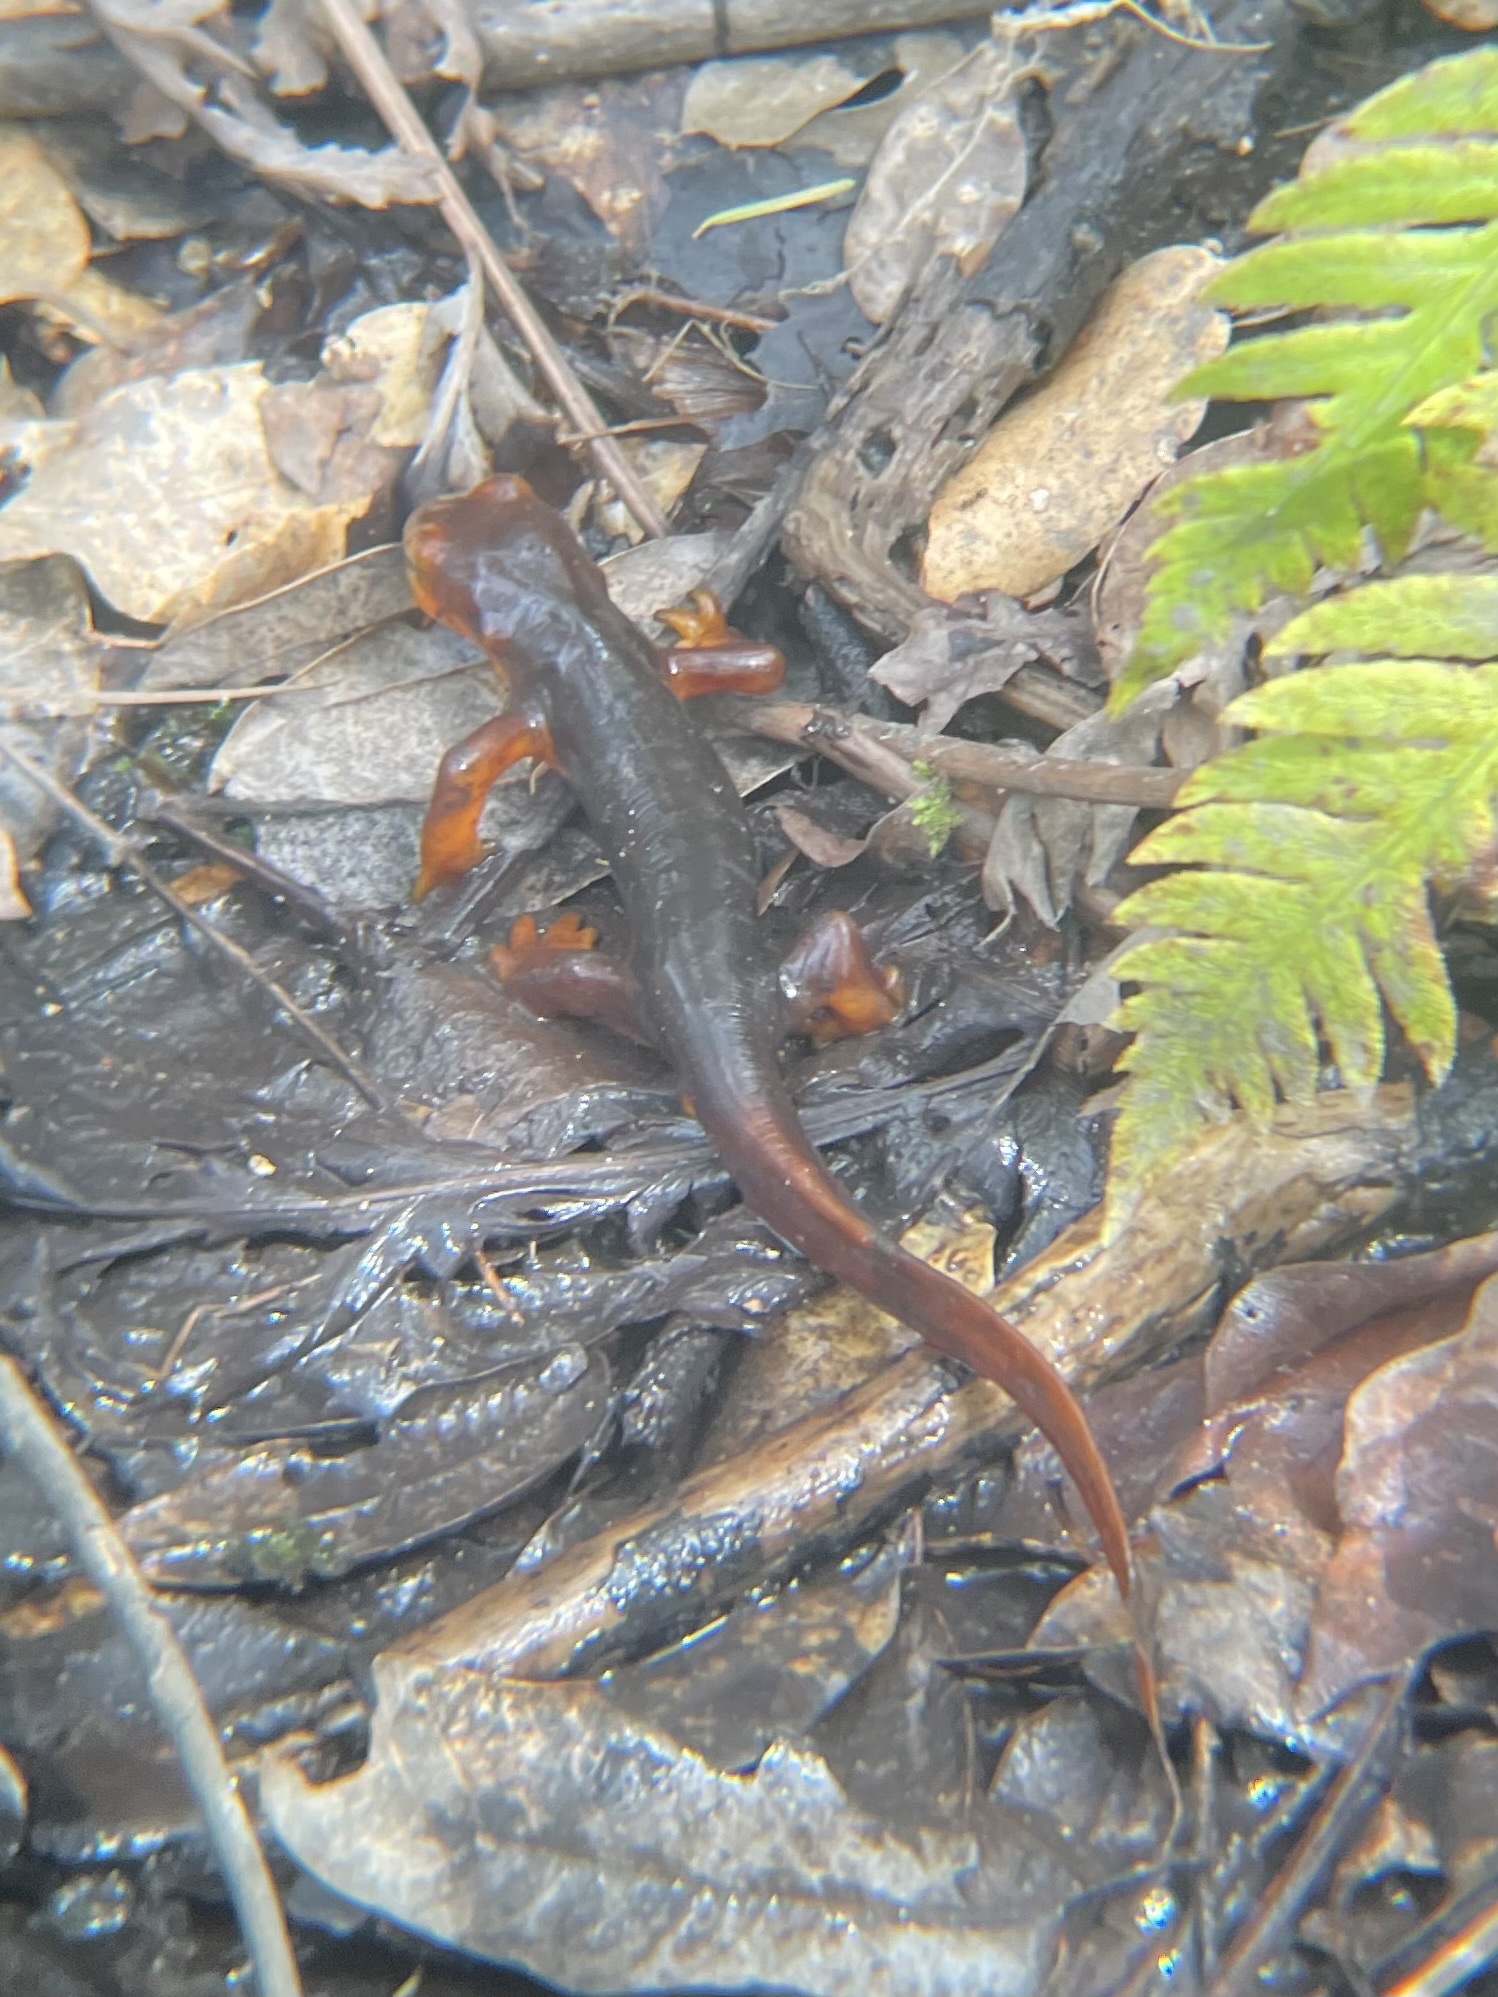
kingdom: Animalia
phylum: Chordata
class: Amphibia
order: Caudata
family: Salamandridae
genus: Taricha
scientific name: Taricha sierrae
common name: Sierra newt
